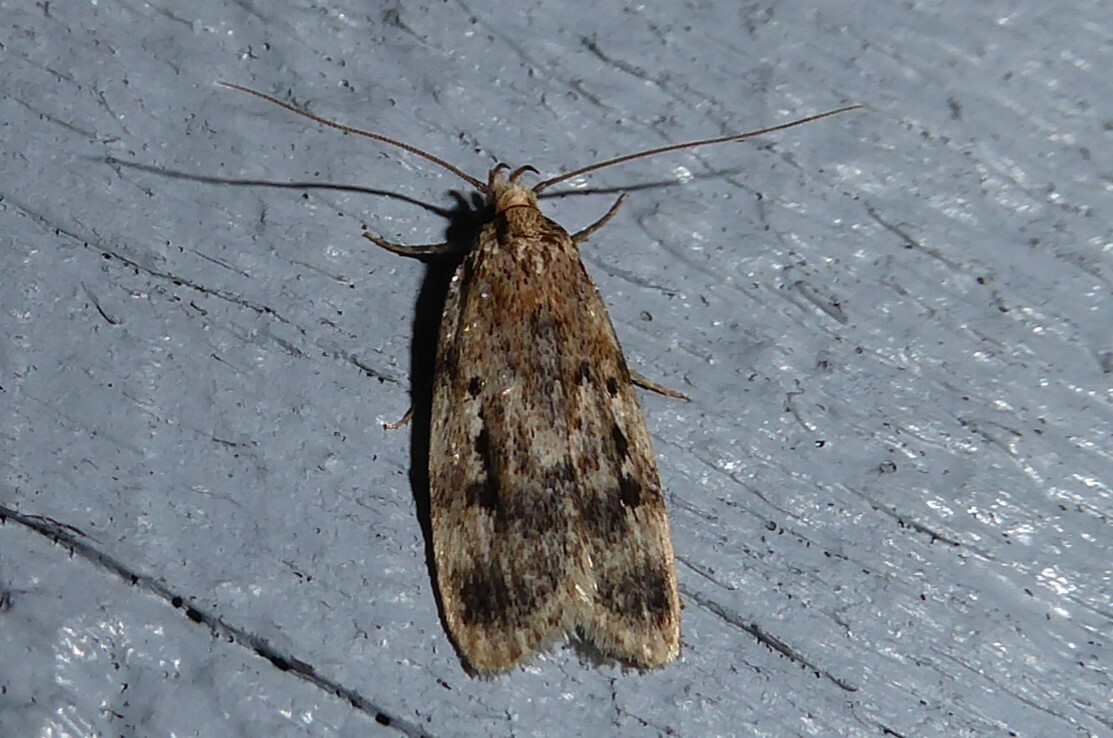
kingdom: Animalia
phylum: Arthropoda
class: Insecta
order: Lepidoptera
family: Oecophoridae
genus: Barea
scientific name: Barea exarcha
